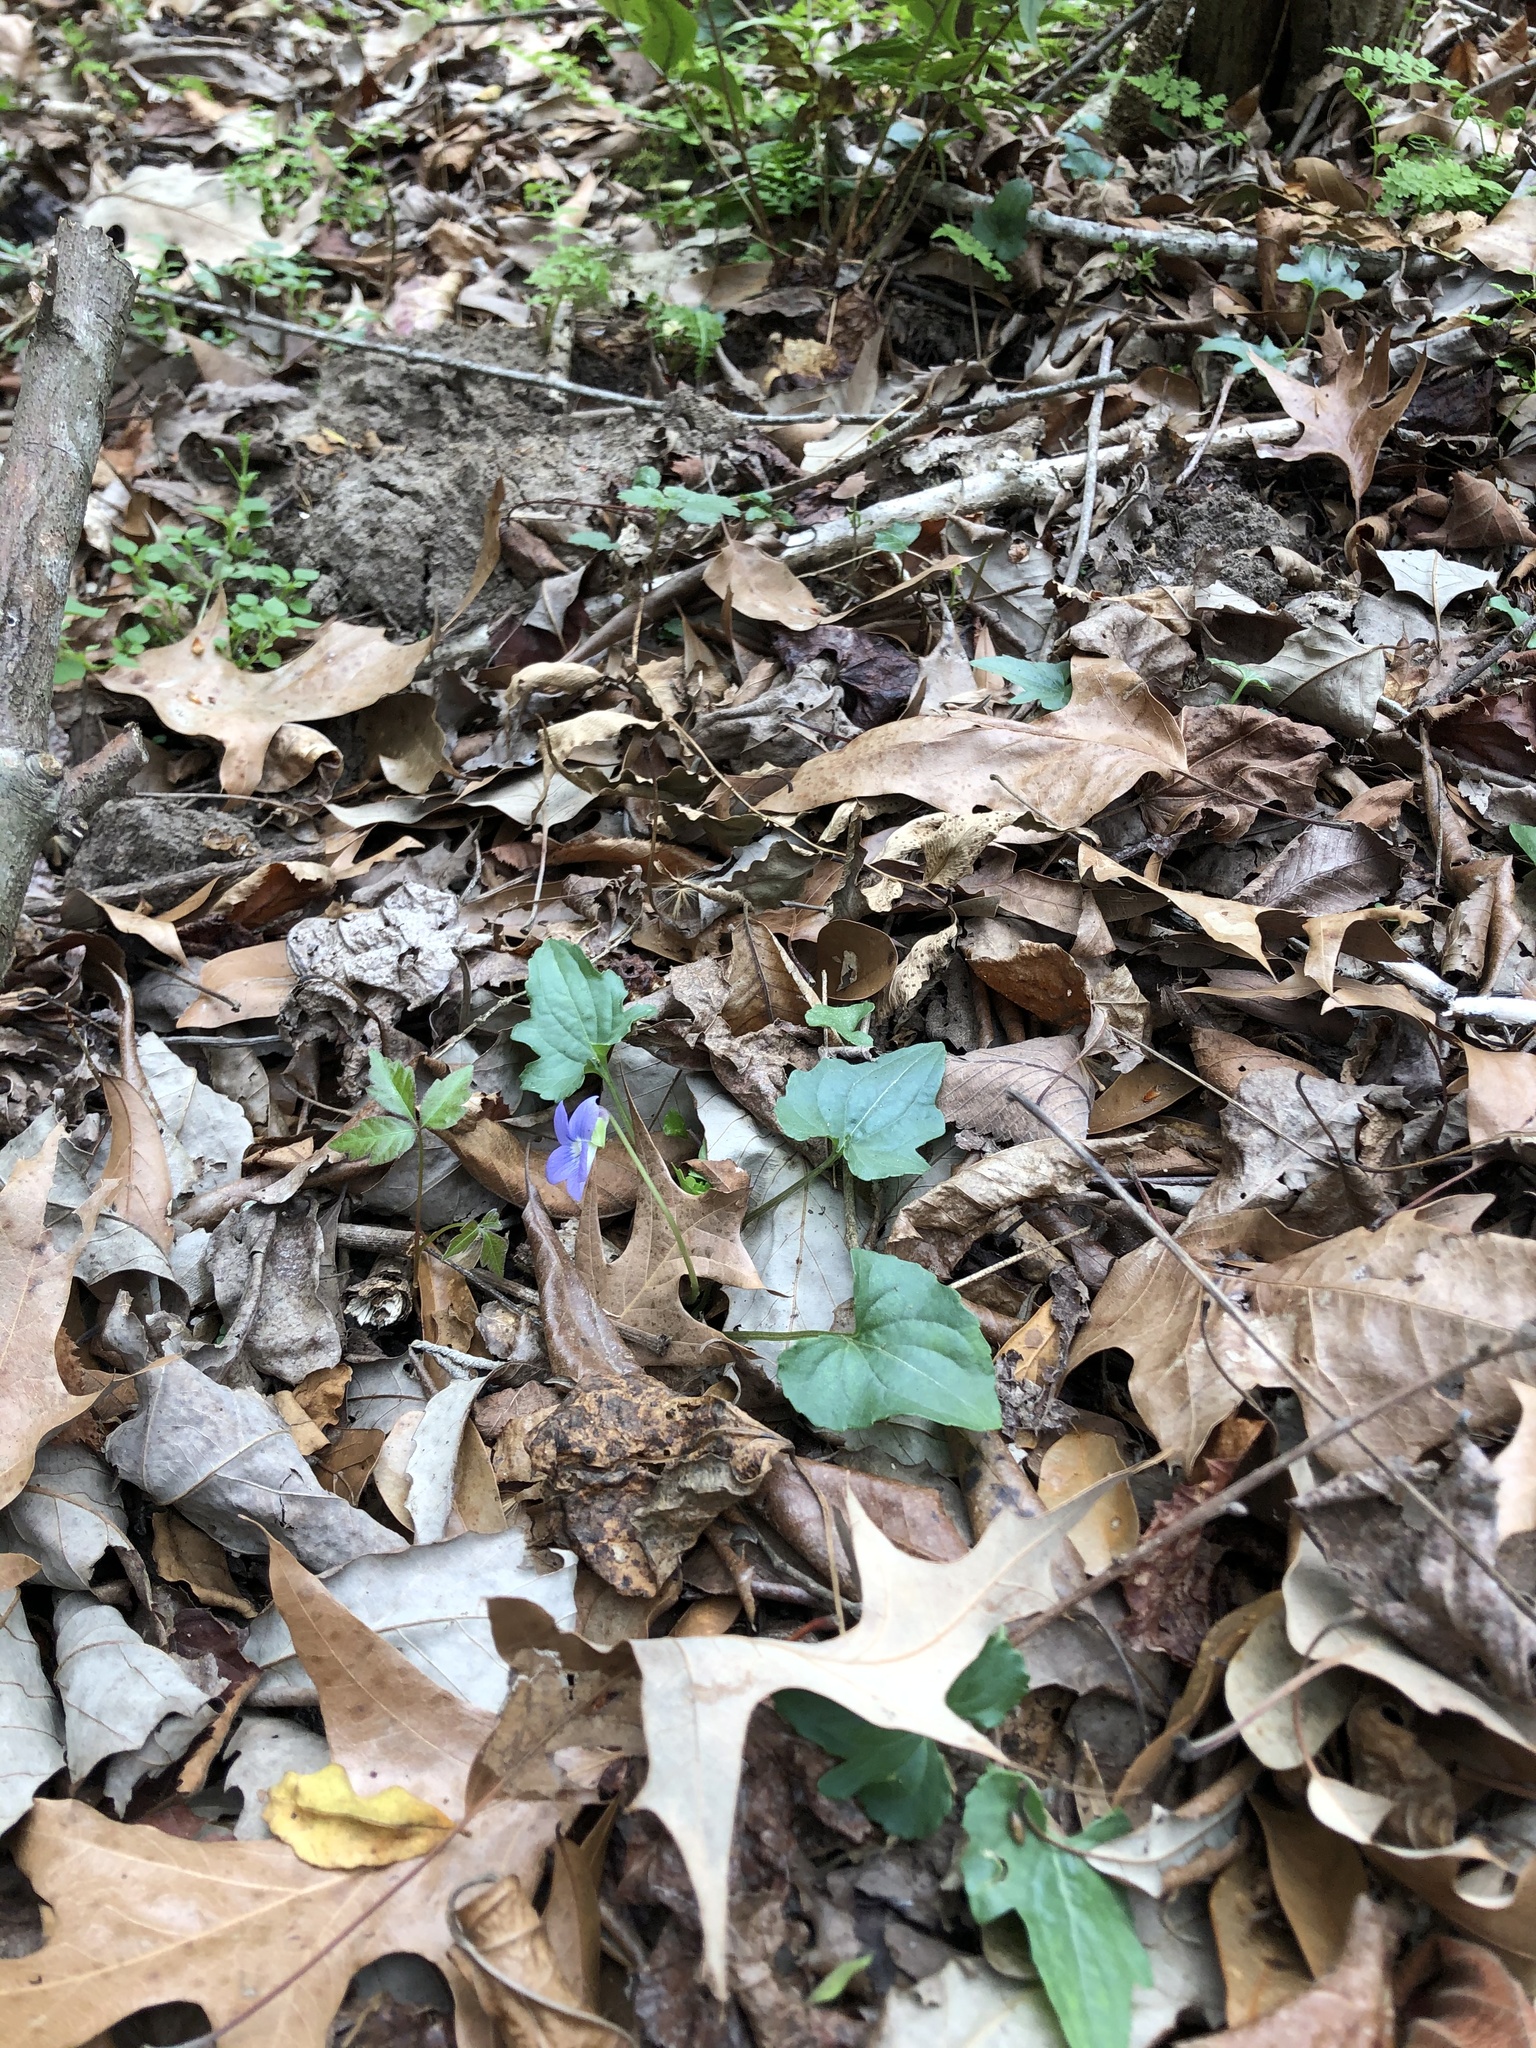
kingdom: Plantae
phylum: Tracheophyta
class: Magnoliopsida
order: Malpighiales
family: Violaceae
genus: Viola
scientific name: Viola edulis
